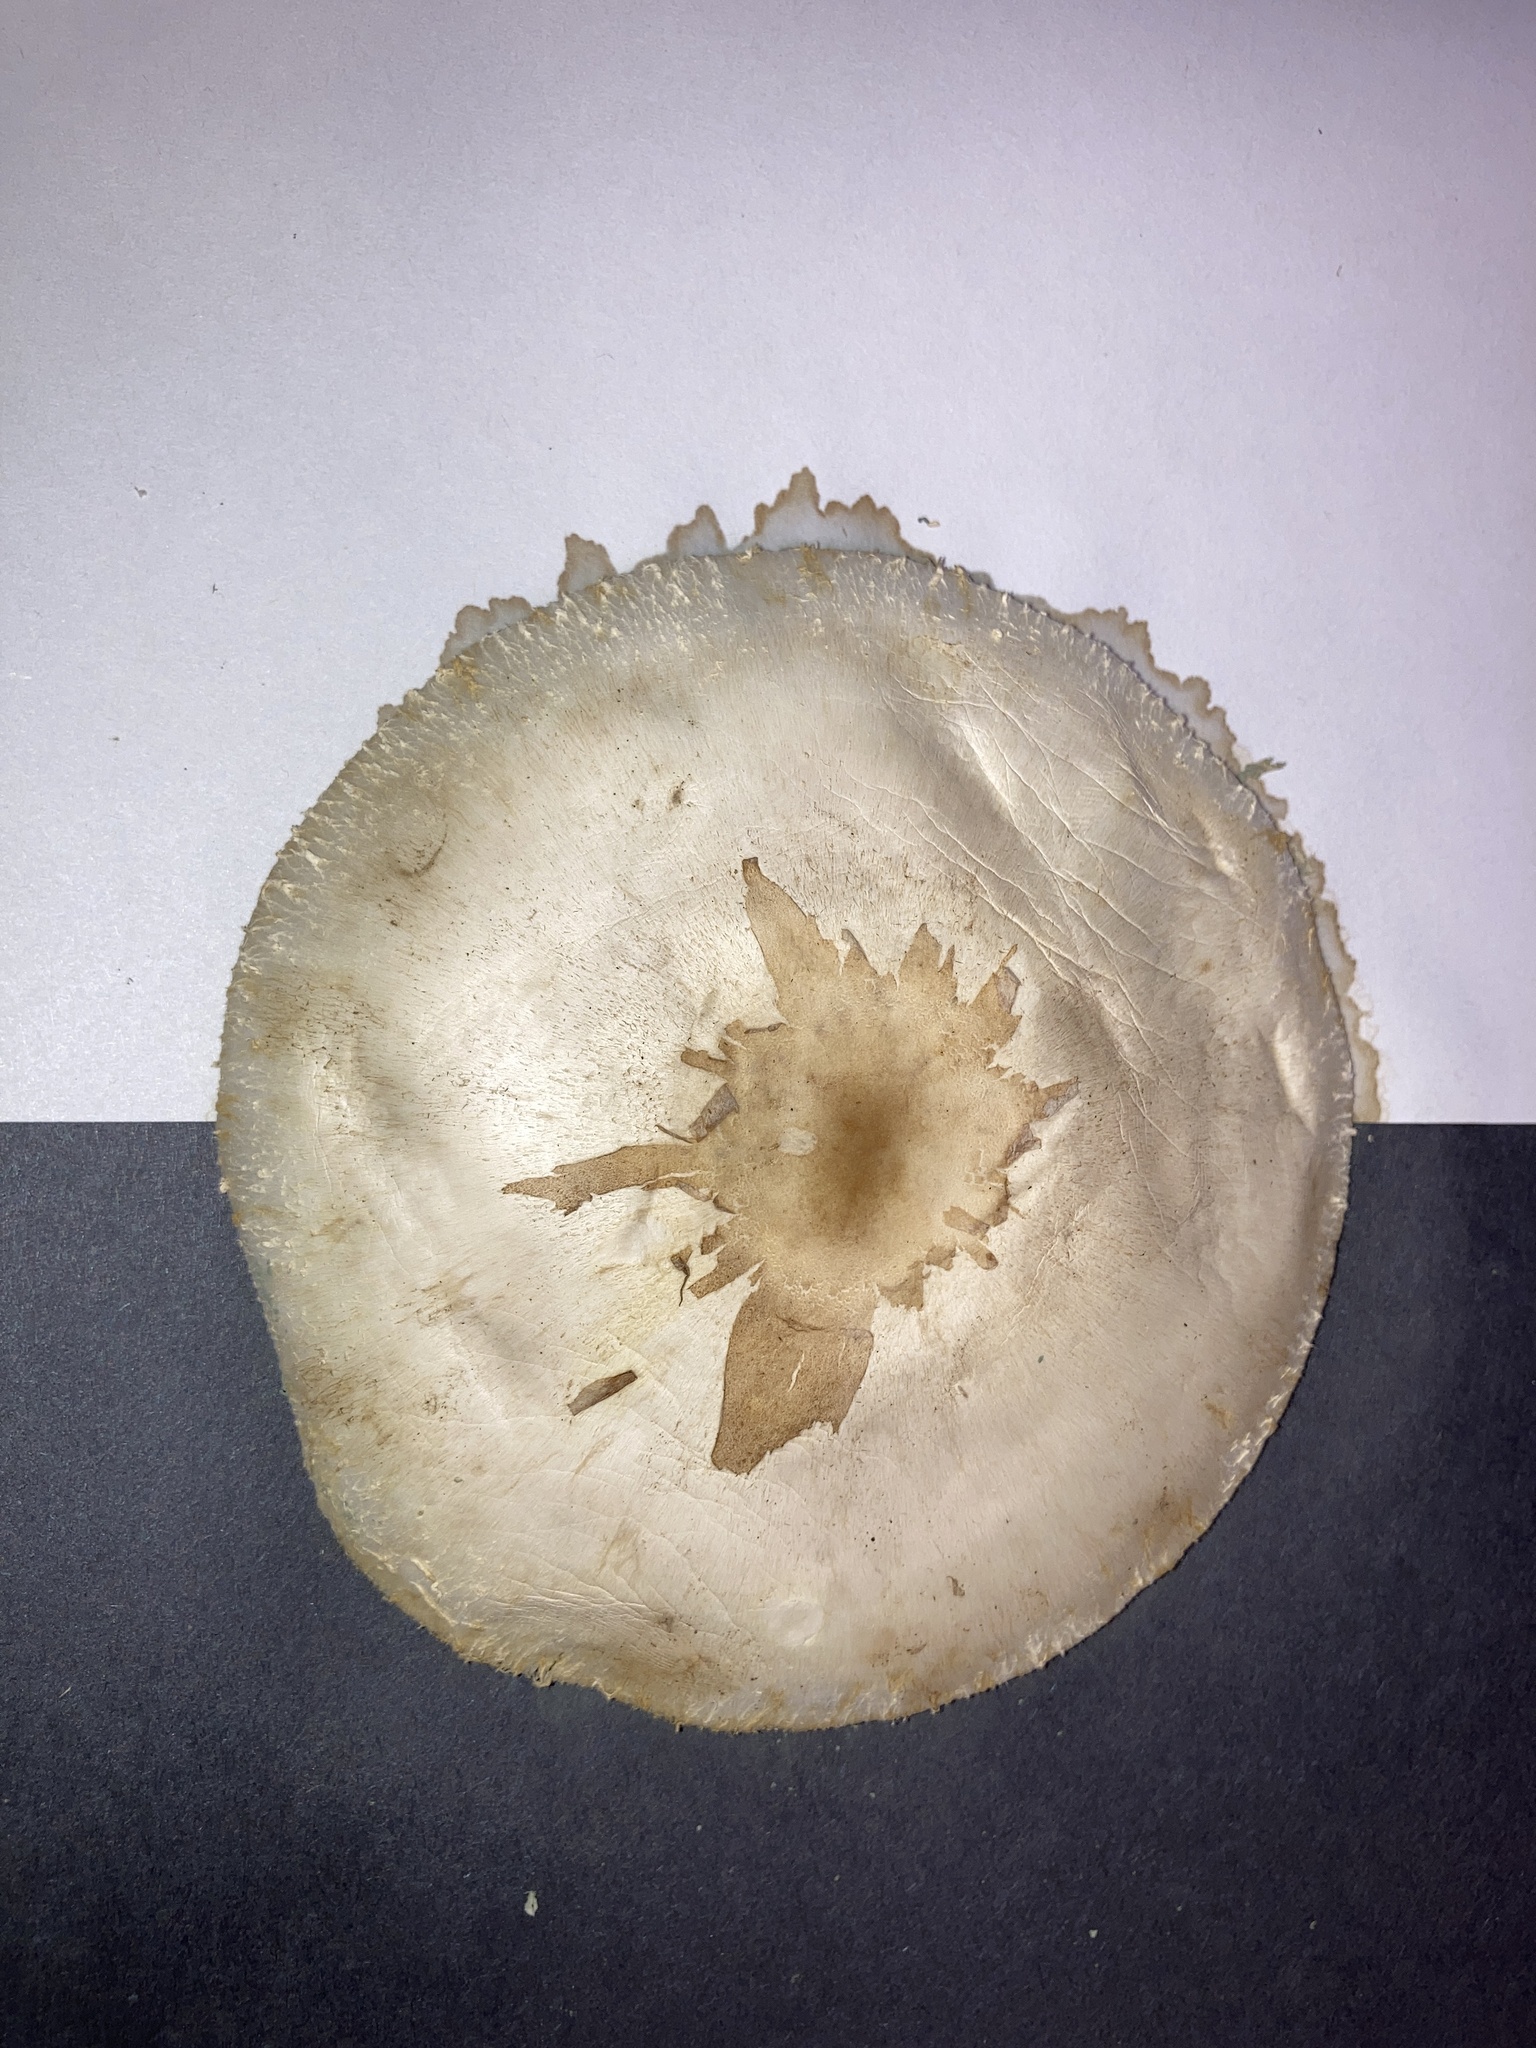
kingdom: Fungi
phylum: Basidiomycota
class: Agaricomycetes
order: Agaricales
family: Agaricaceae
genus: Chlorophyllum
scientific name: Chlorophyllum molybdites
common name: False parasol
